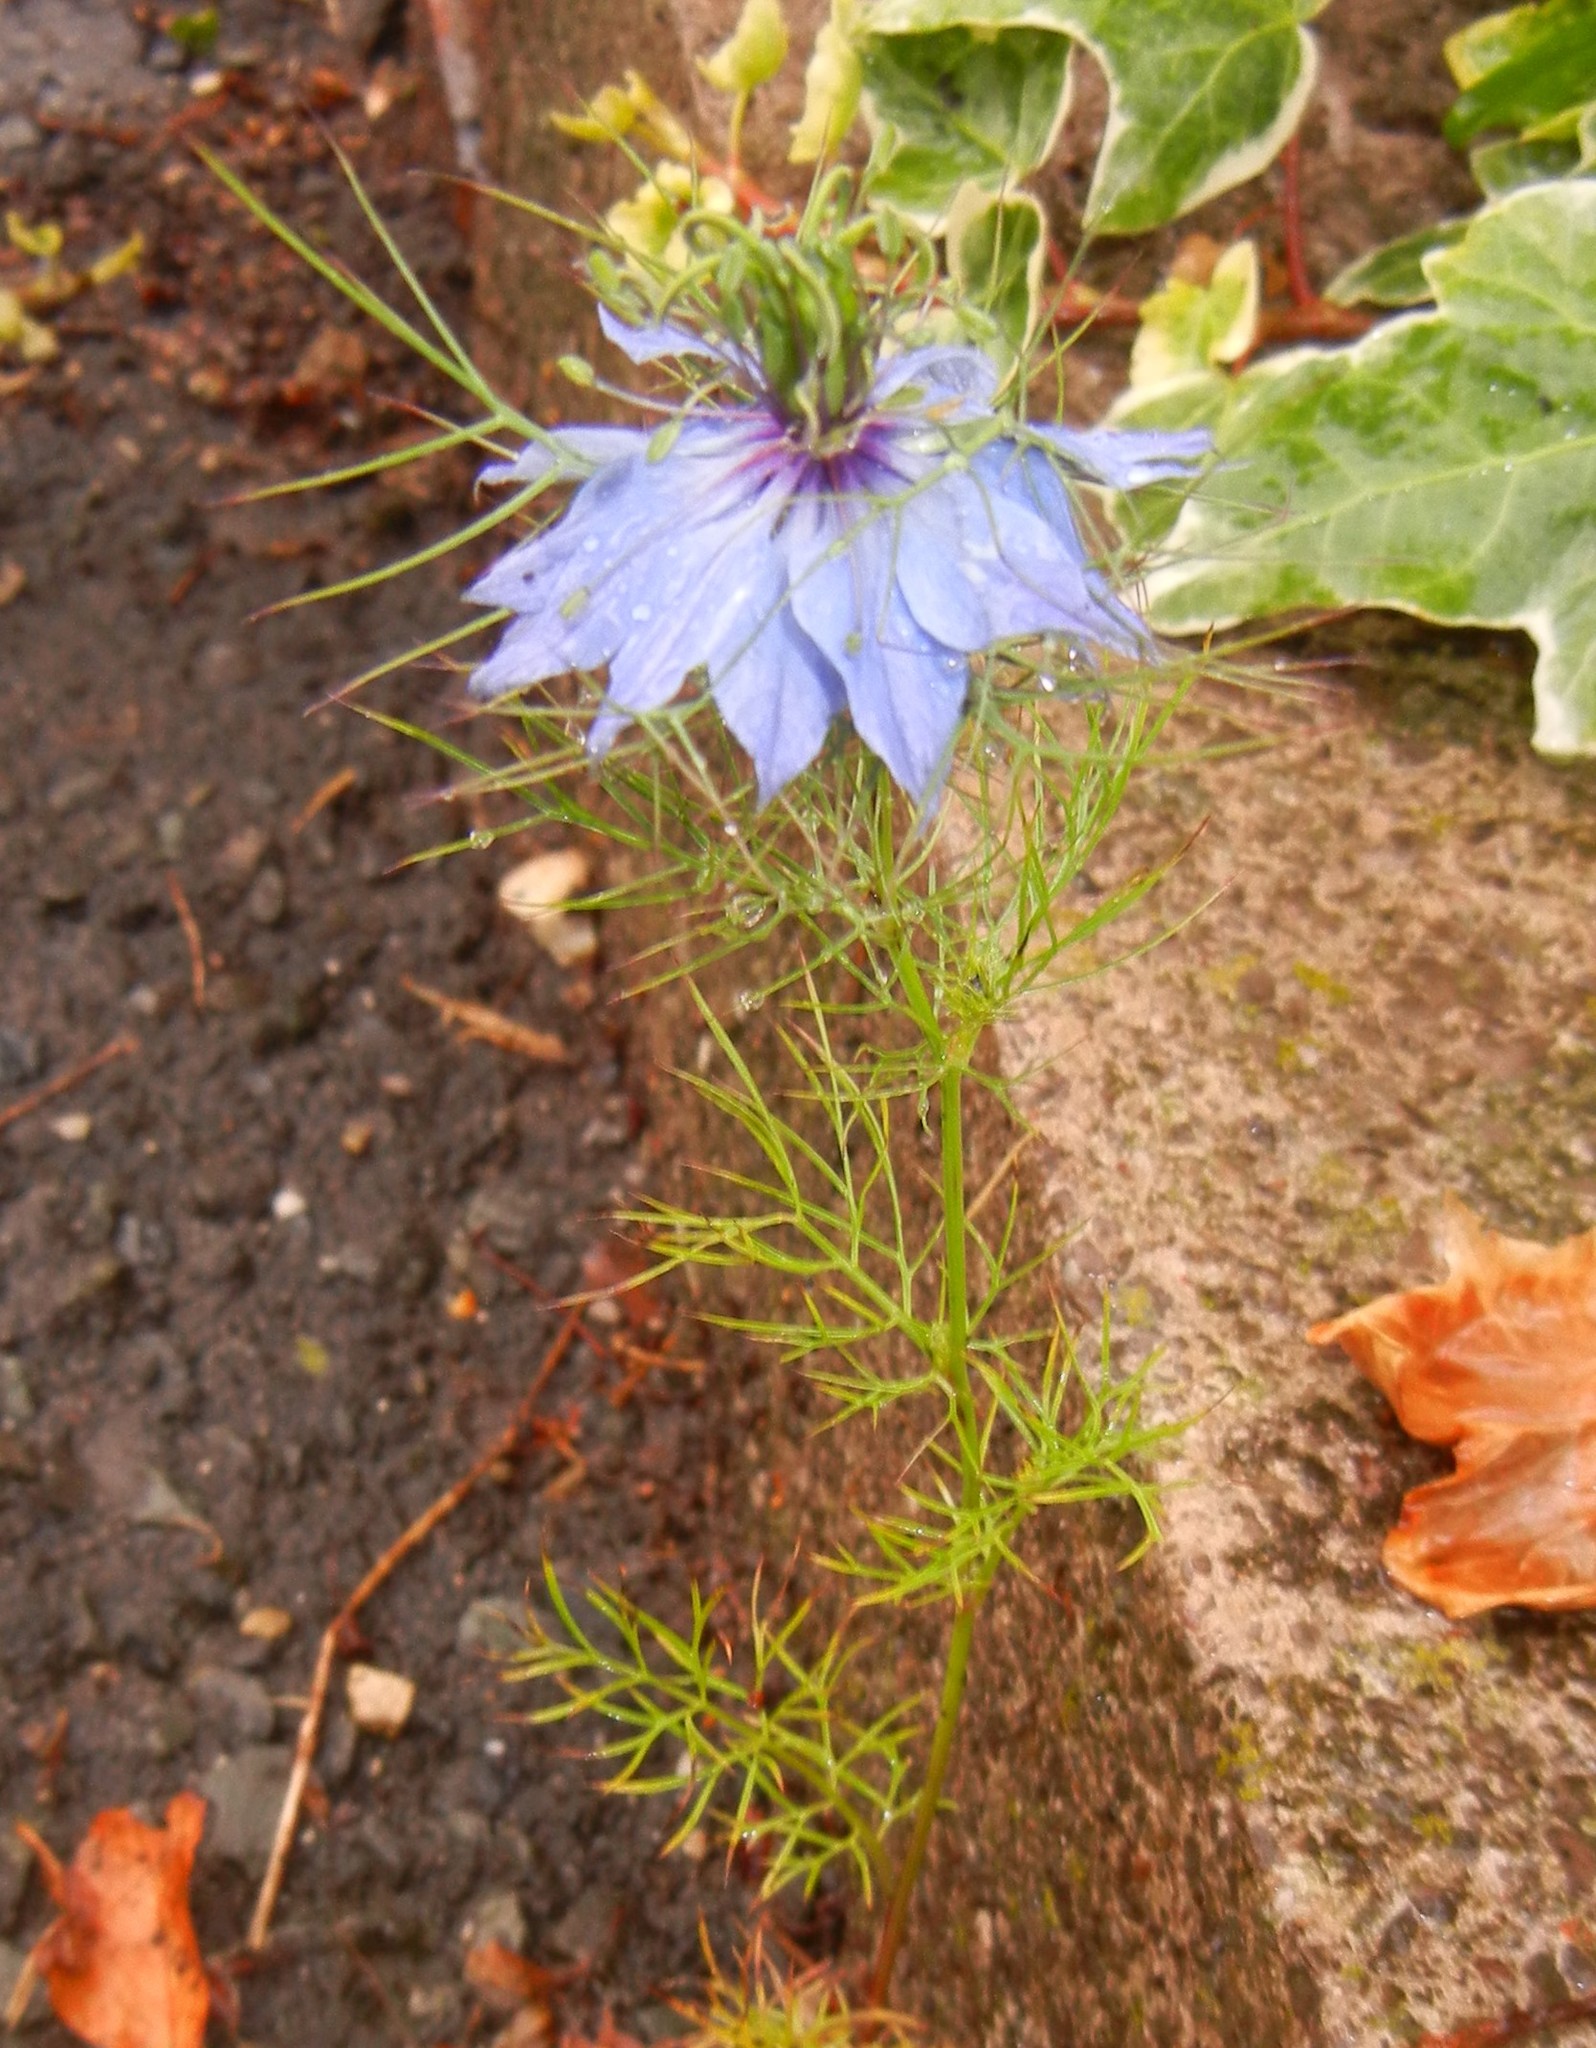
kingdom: Plantae
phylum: Tracheophyta
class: Magnoliopsida
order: Ranunculales
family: Ranunculaceae
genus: Nigella
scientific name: Nigella damascena
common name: Love-in-a-mist
